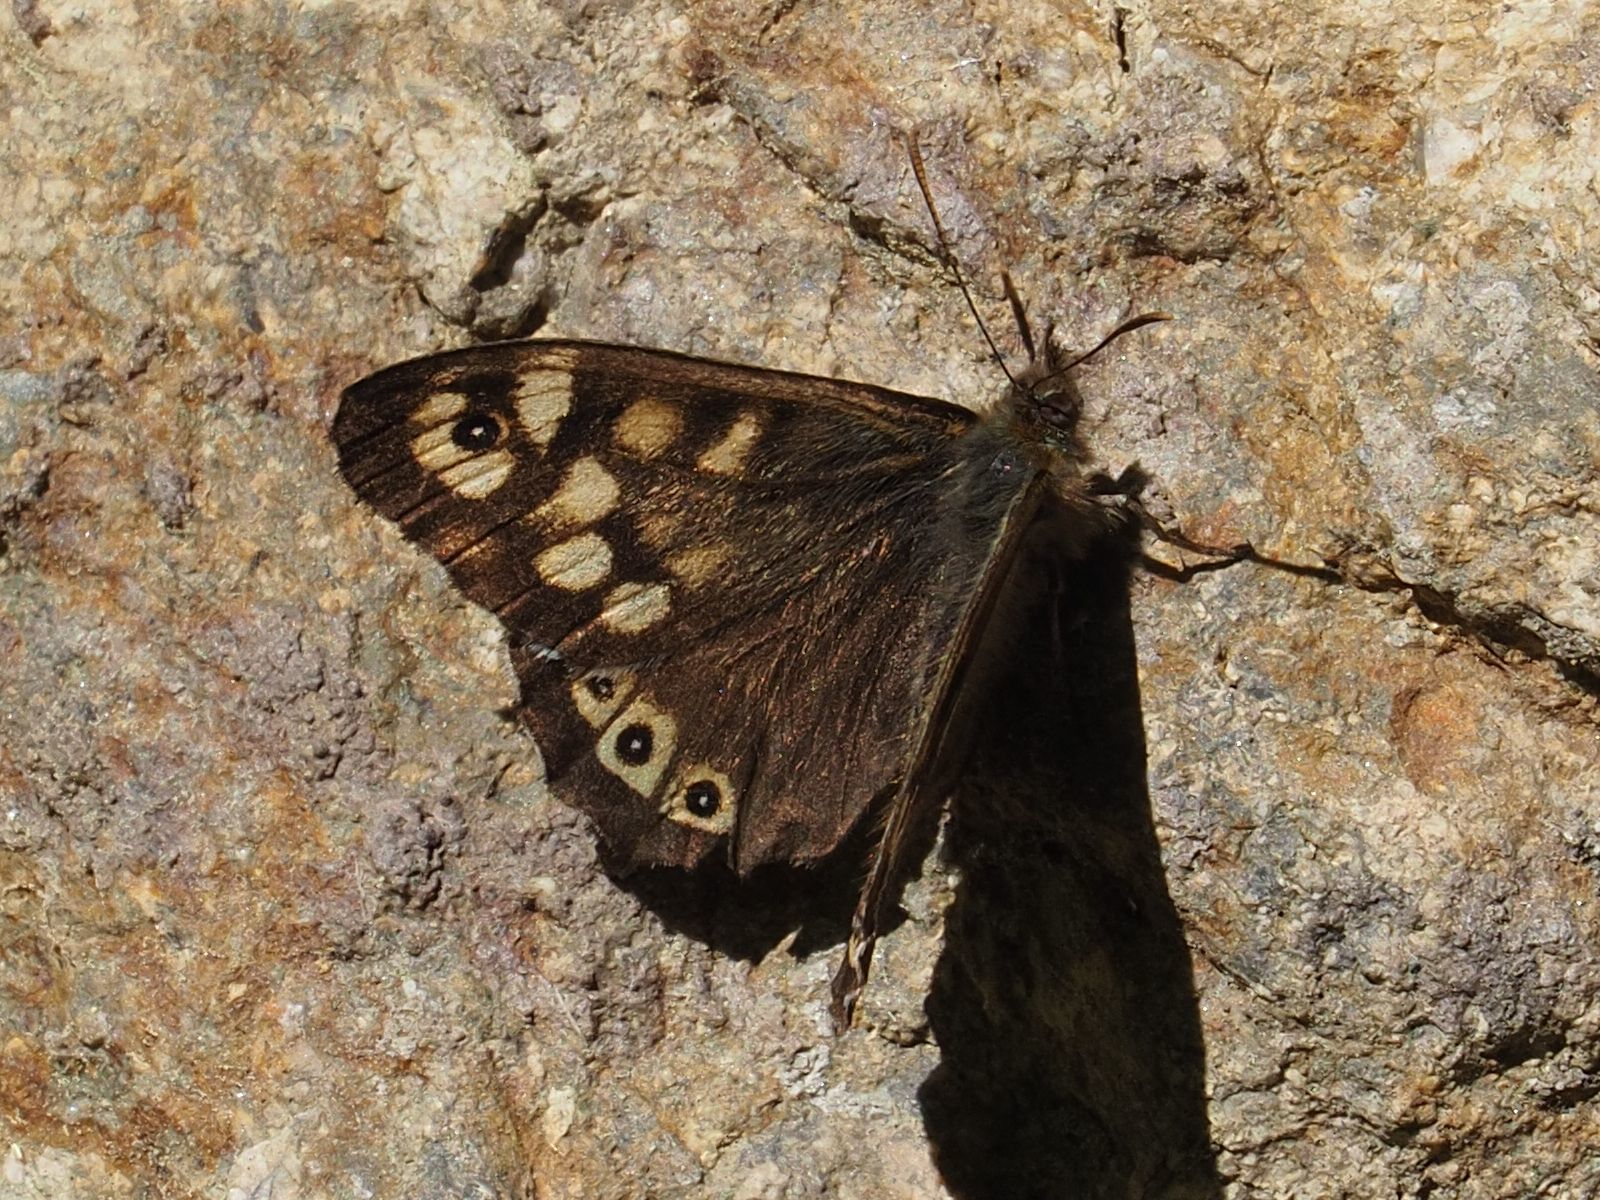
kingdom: Animalia
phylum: Arthropoda
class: Insecta
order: Lepidoptera
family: Nymphalidae
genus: Pararge
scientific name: Pararge aegeria
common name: Speckled wood
